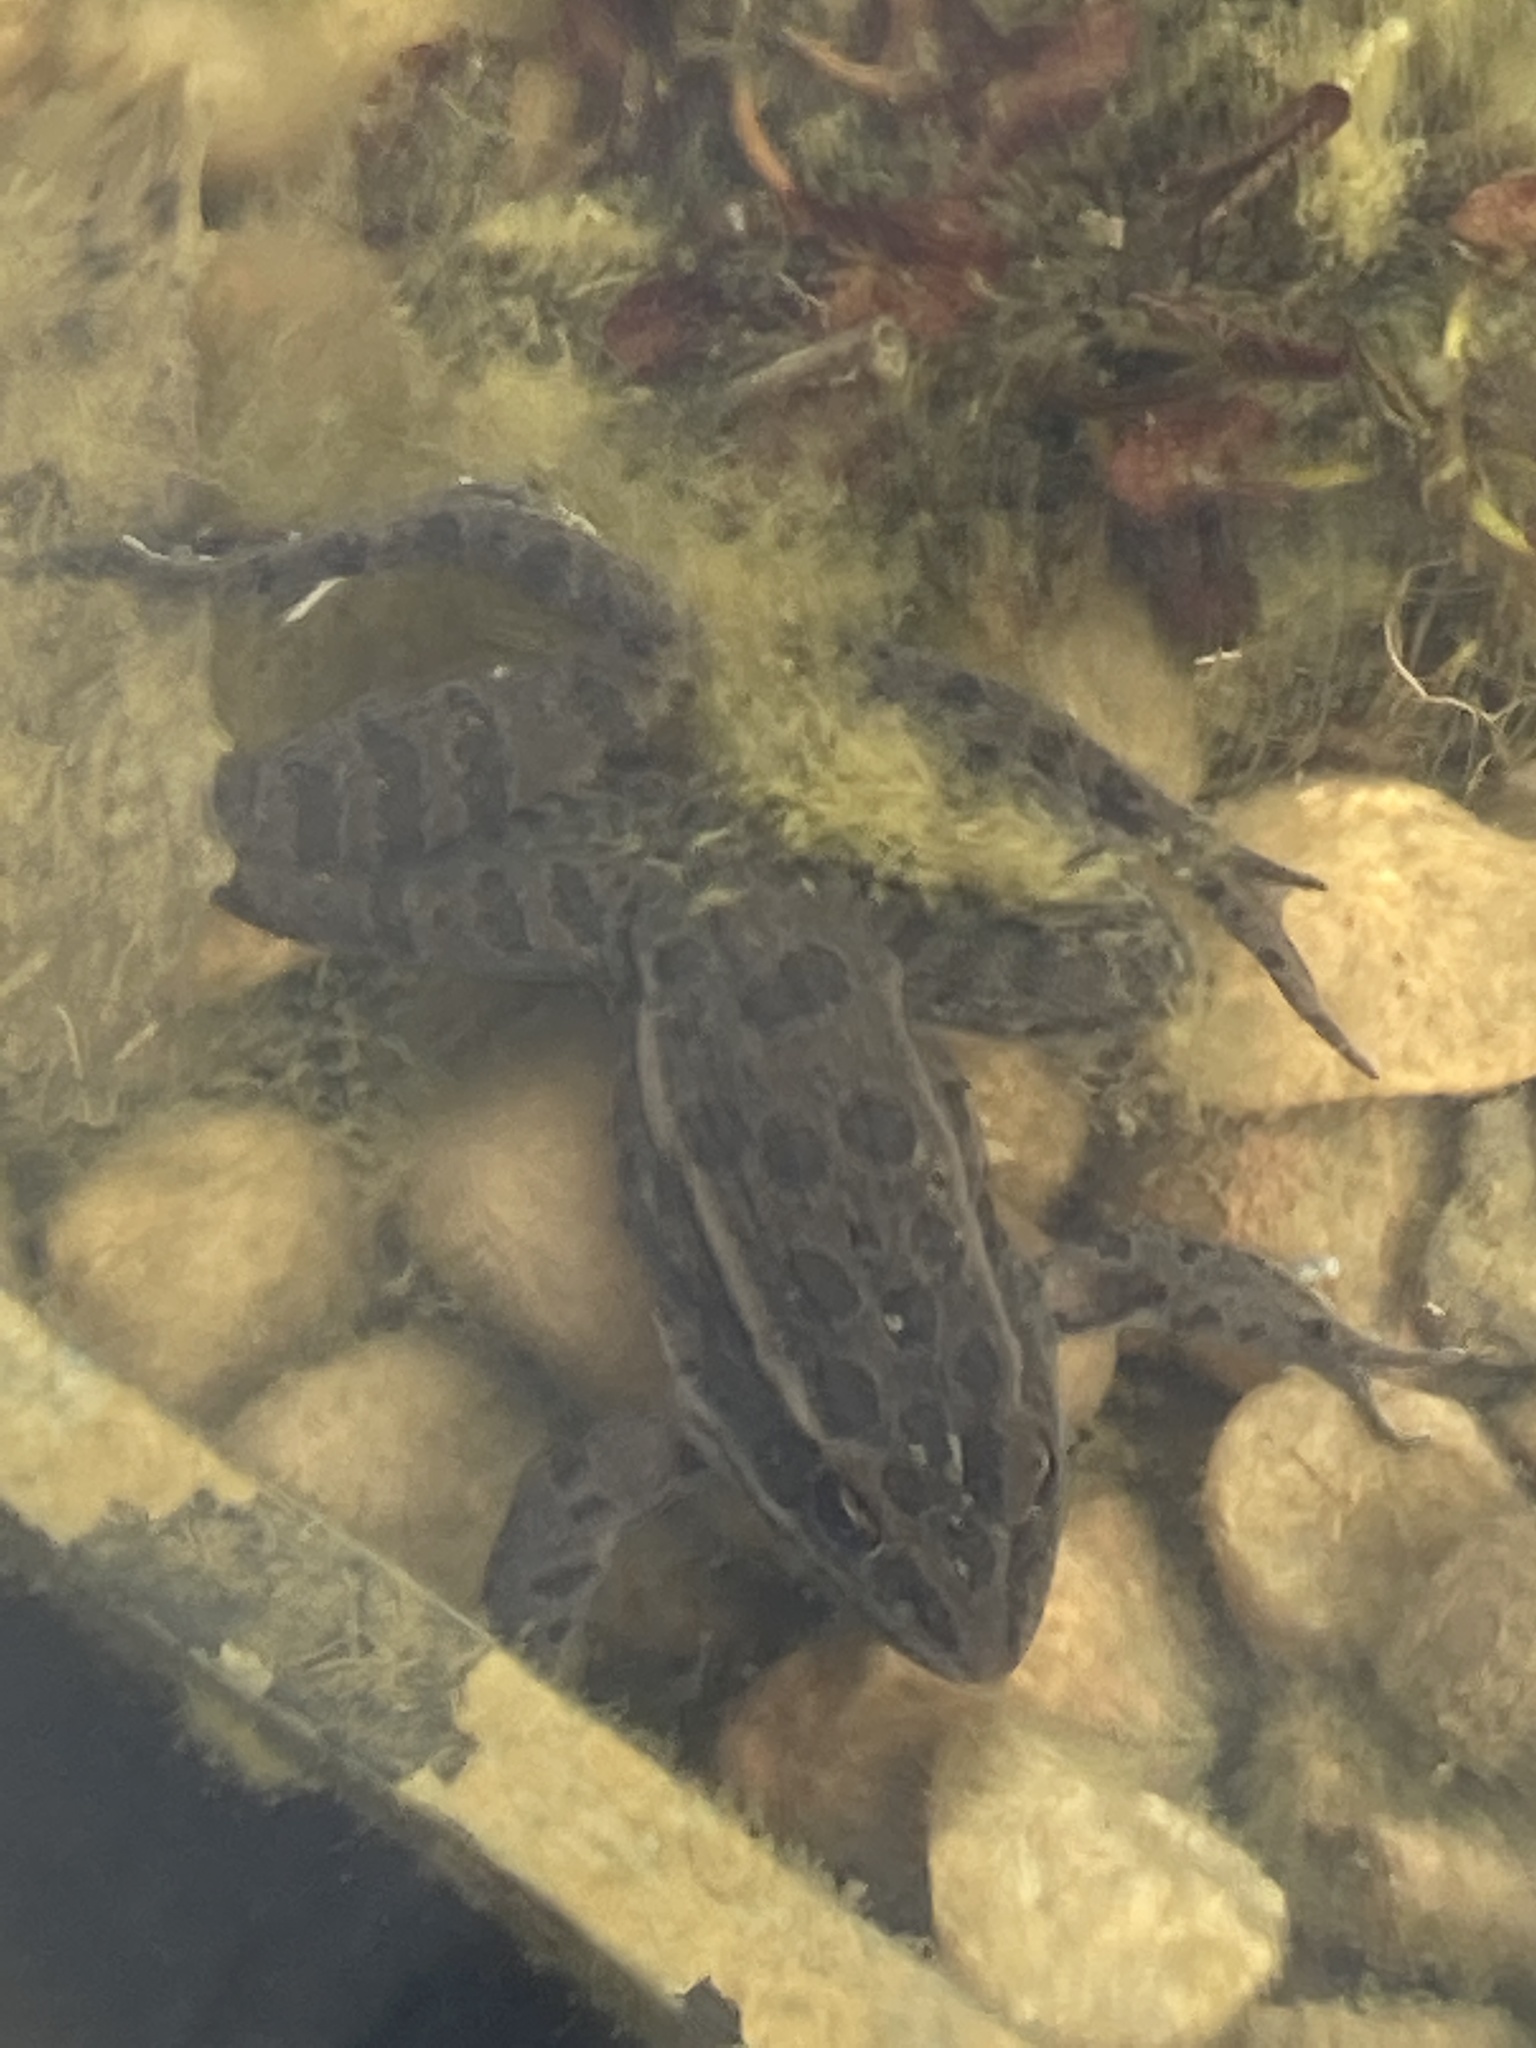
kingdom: Animalia
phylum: Chordata
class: Amphibia
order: Anura
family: Ranidae
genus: Lithobates
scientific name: Lithobates blairi
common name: Plains leopard frog
